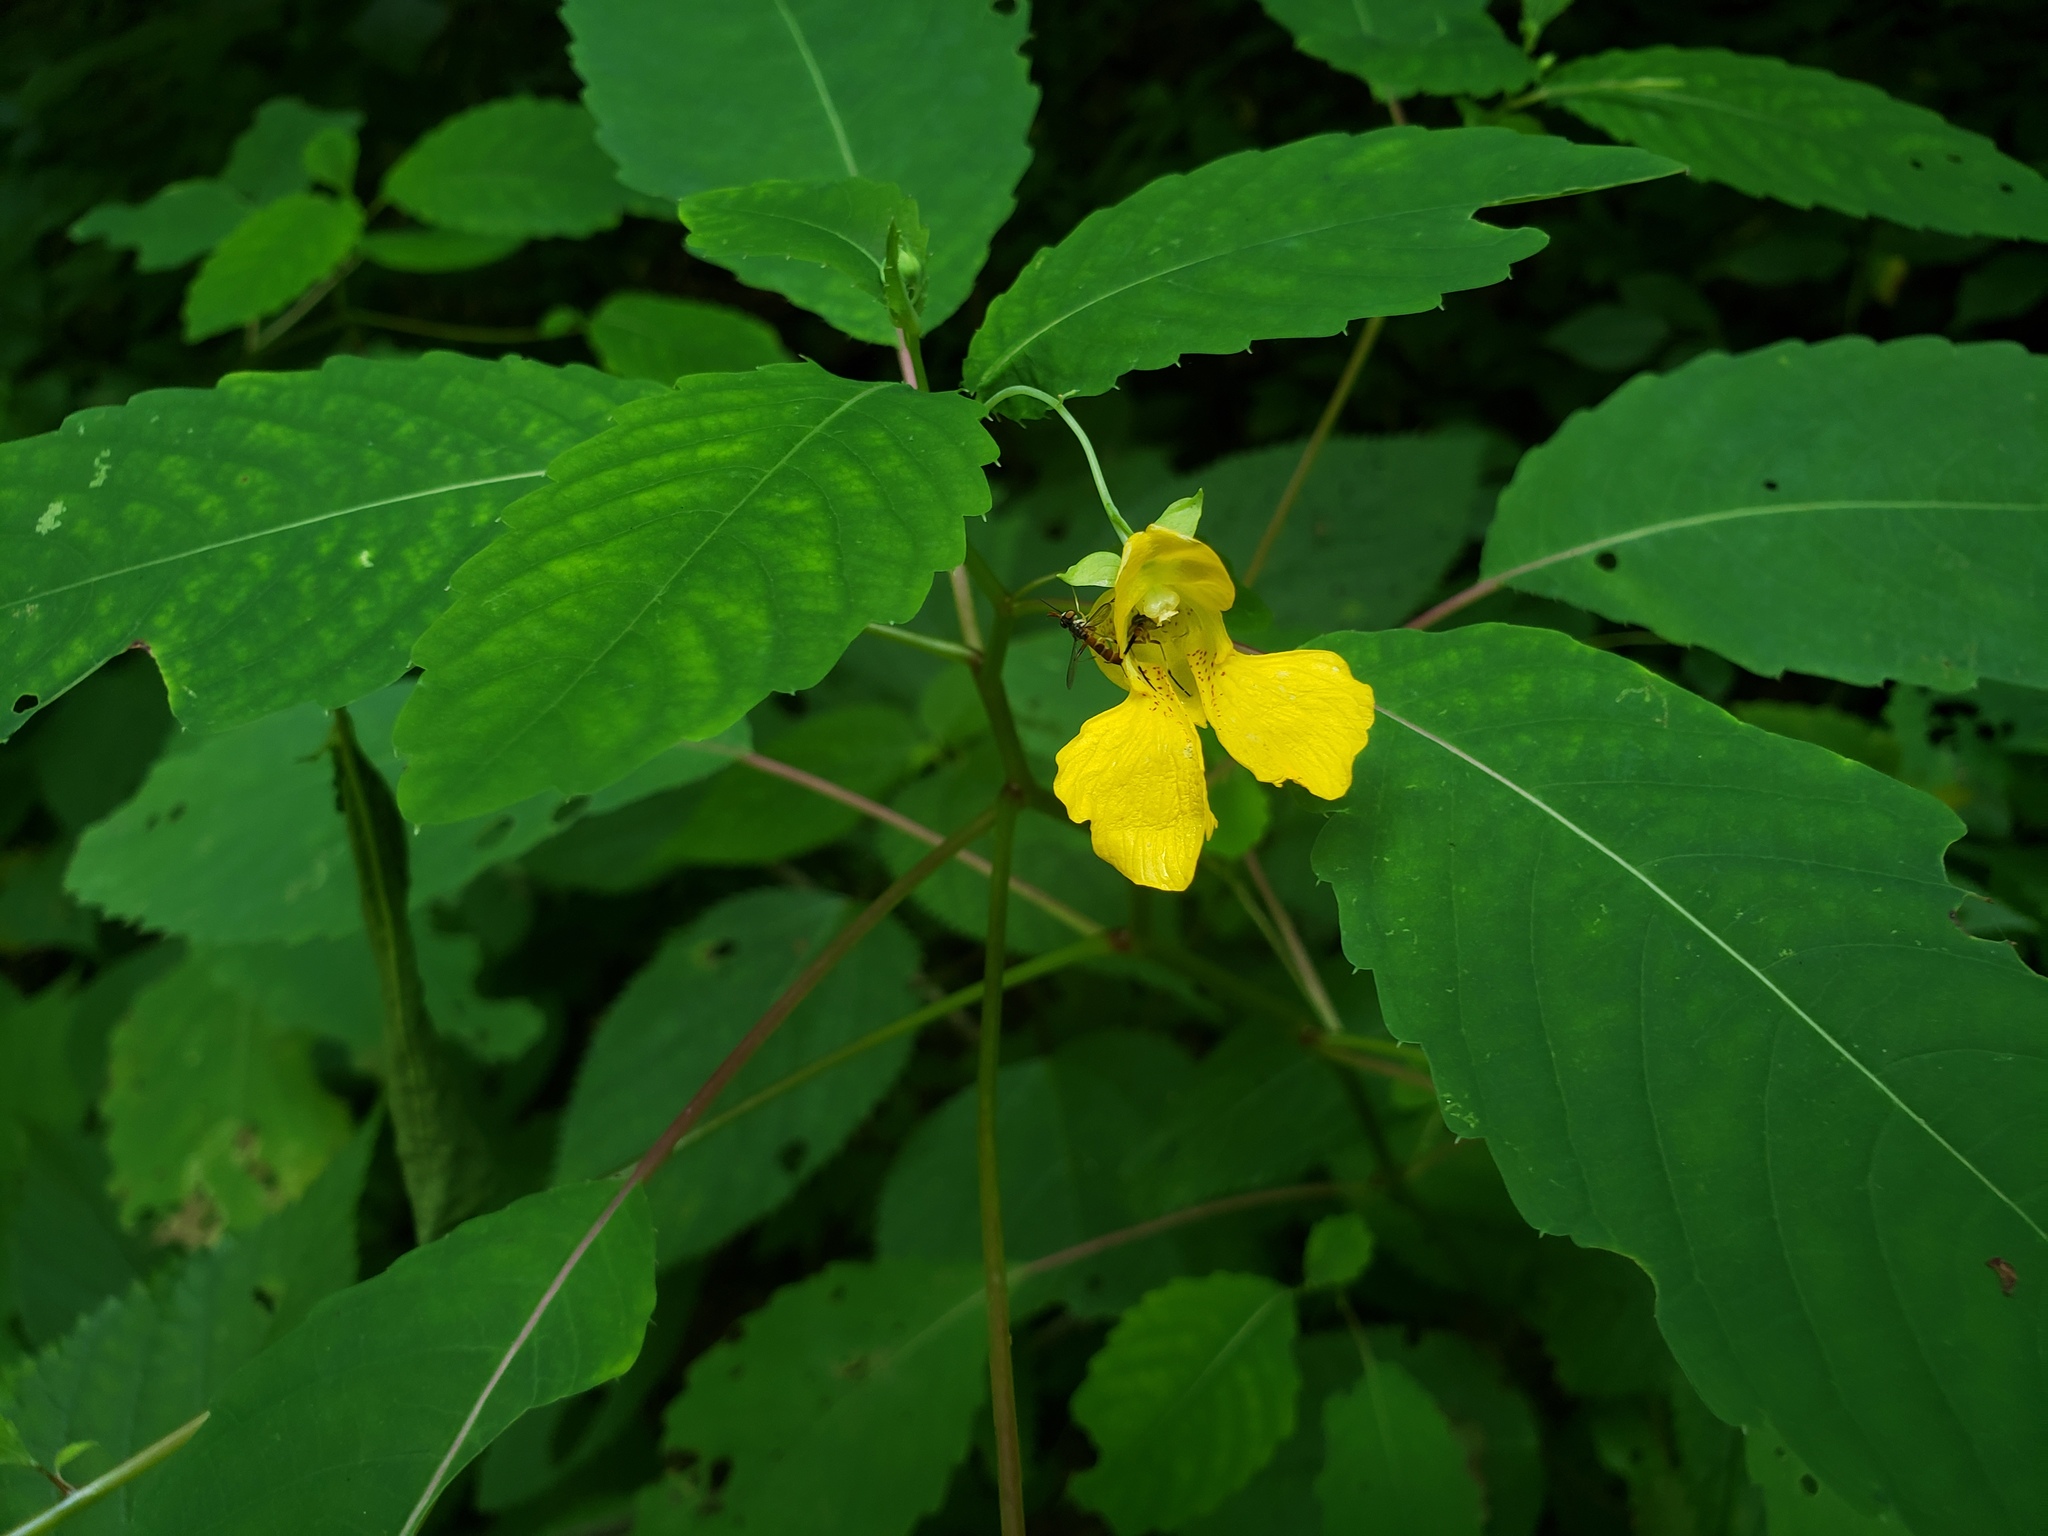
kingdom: Plantae
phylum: Tracheophyta
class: Magnoliopsida
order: Ericales
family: Balsaminaceae
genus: Impatiens
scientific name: Impatiens pallida
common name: Pale snapweed
